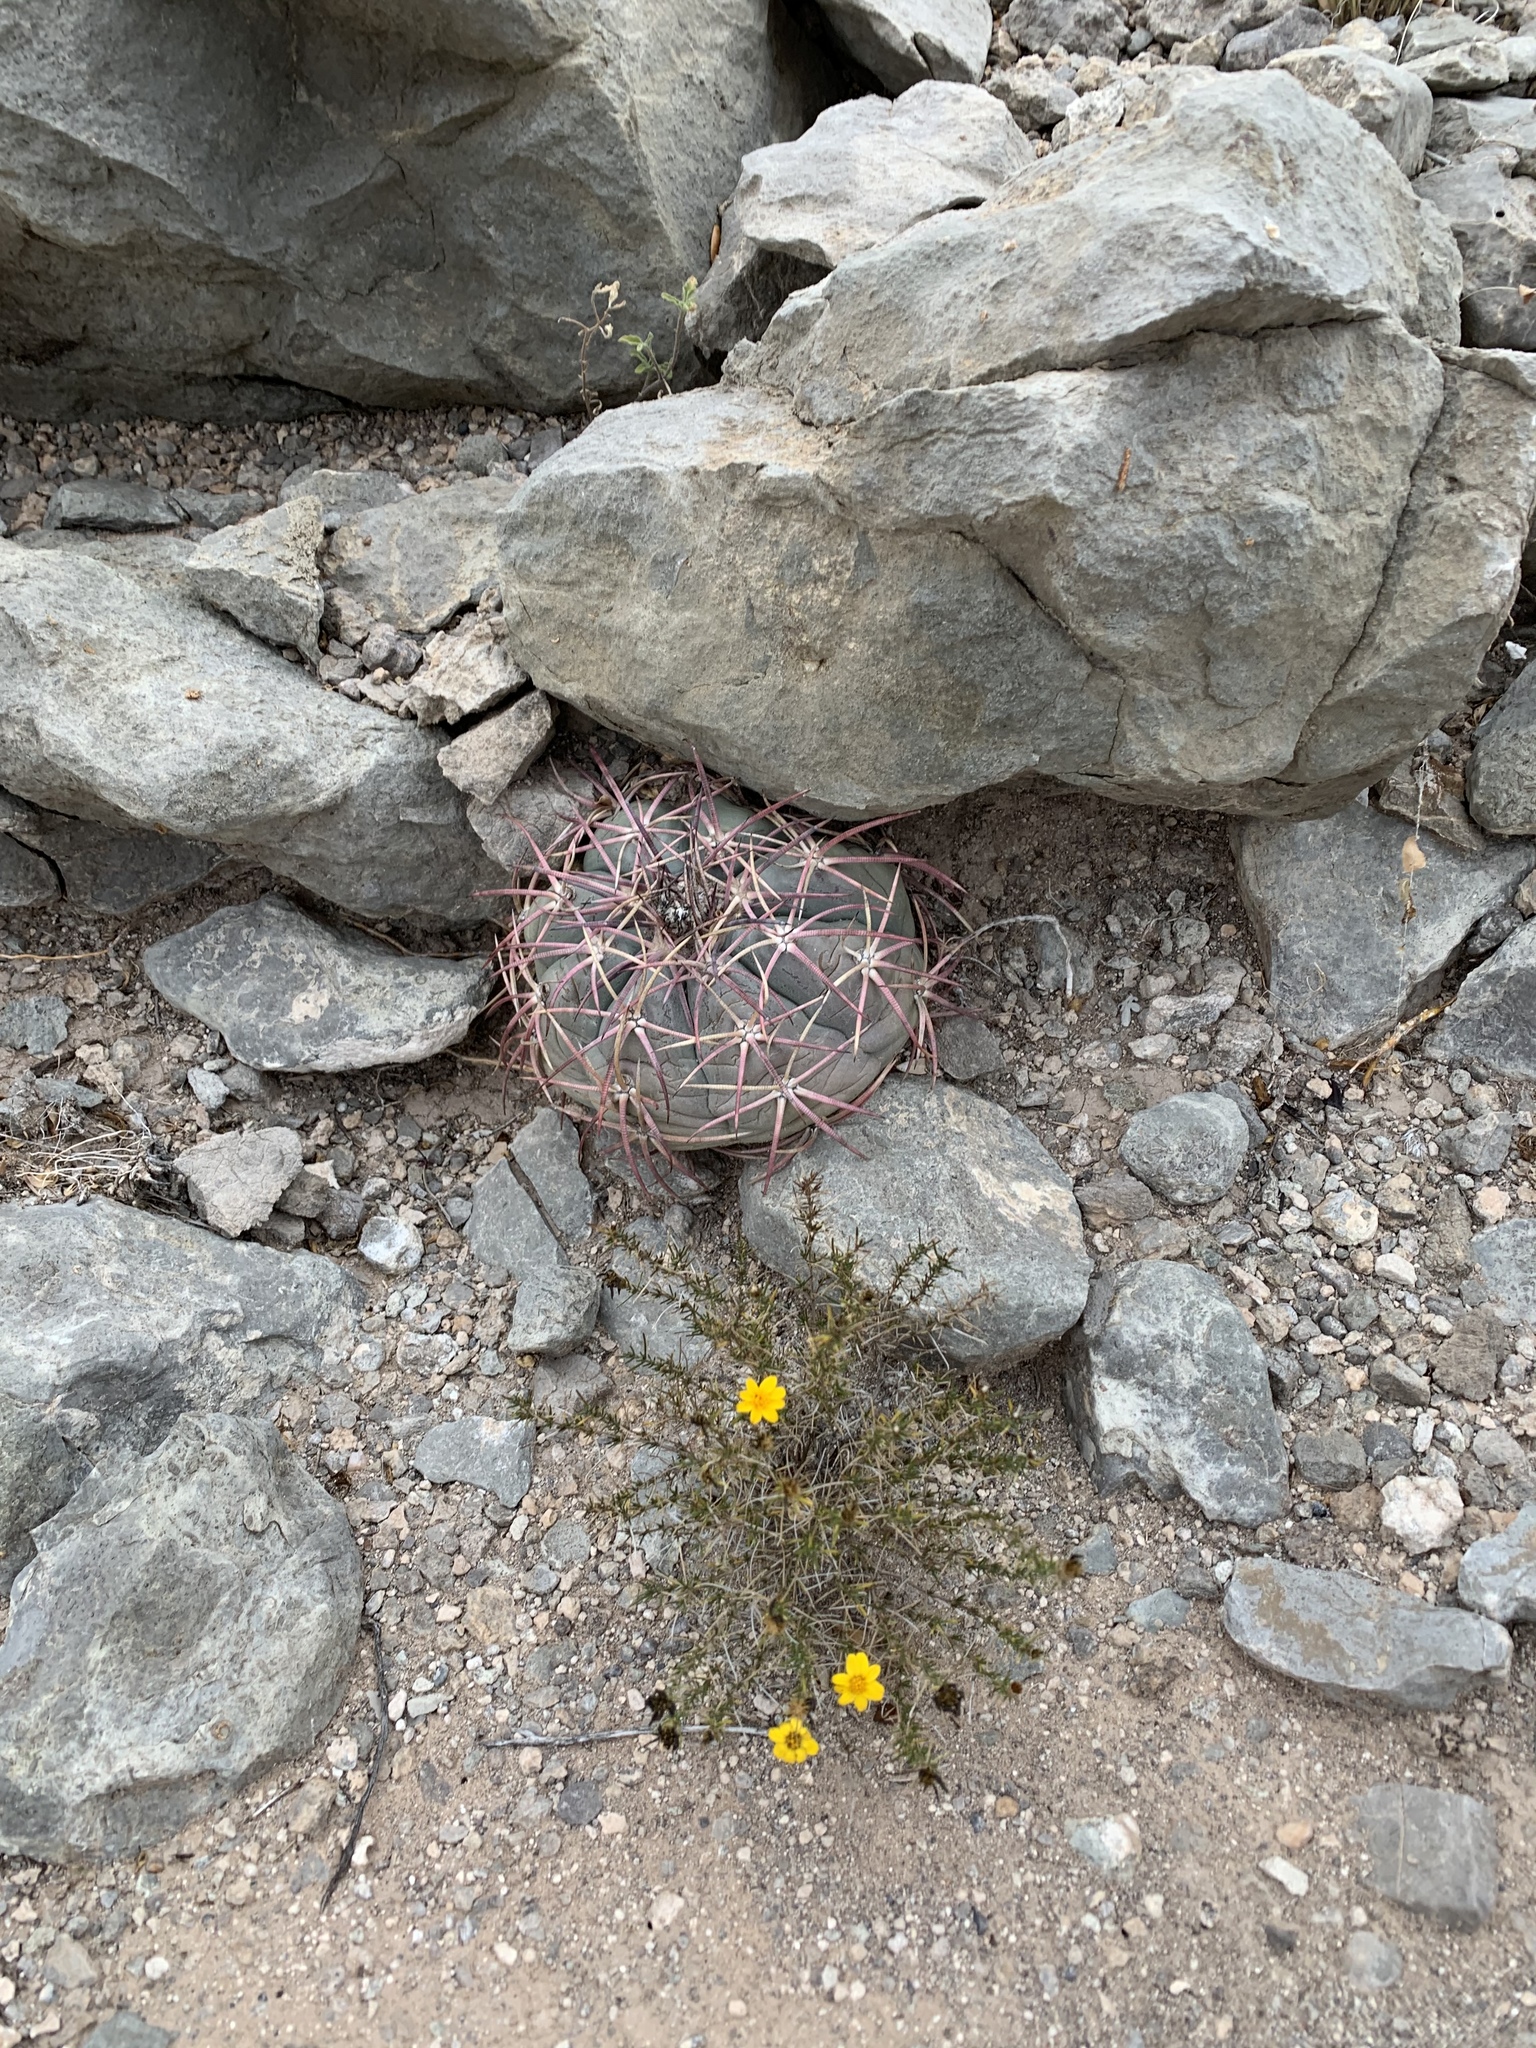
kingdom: Plantae
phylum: Tracheophyta
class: Magnoliopsida
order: Caryophyllales
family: Cactaceae
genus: Echinocactus
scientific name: Echinocactus horizonthalonius
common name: Devilshead
